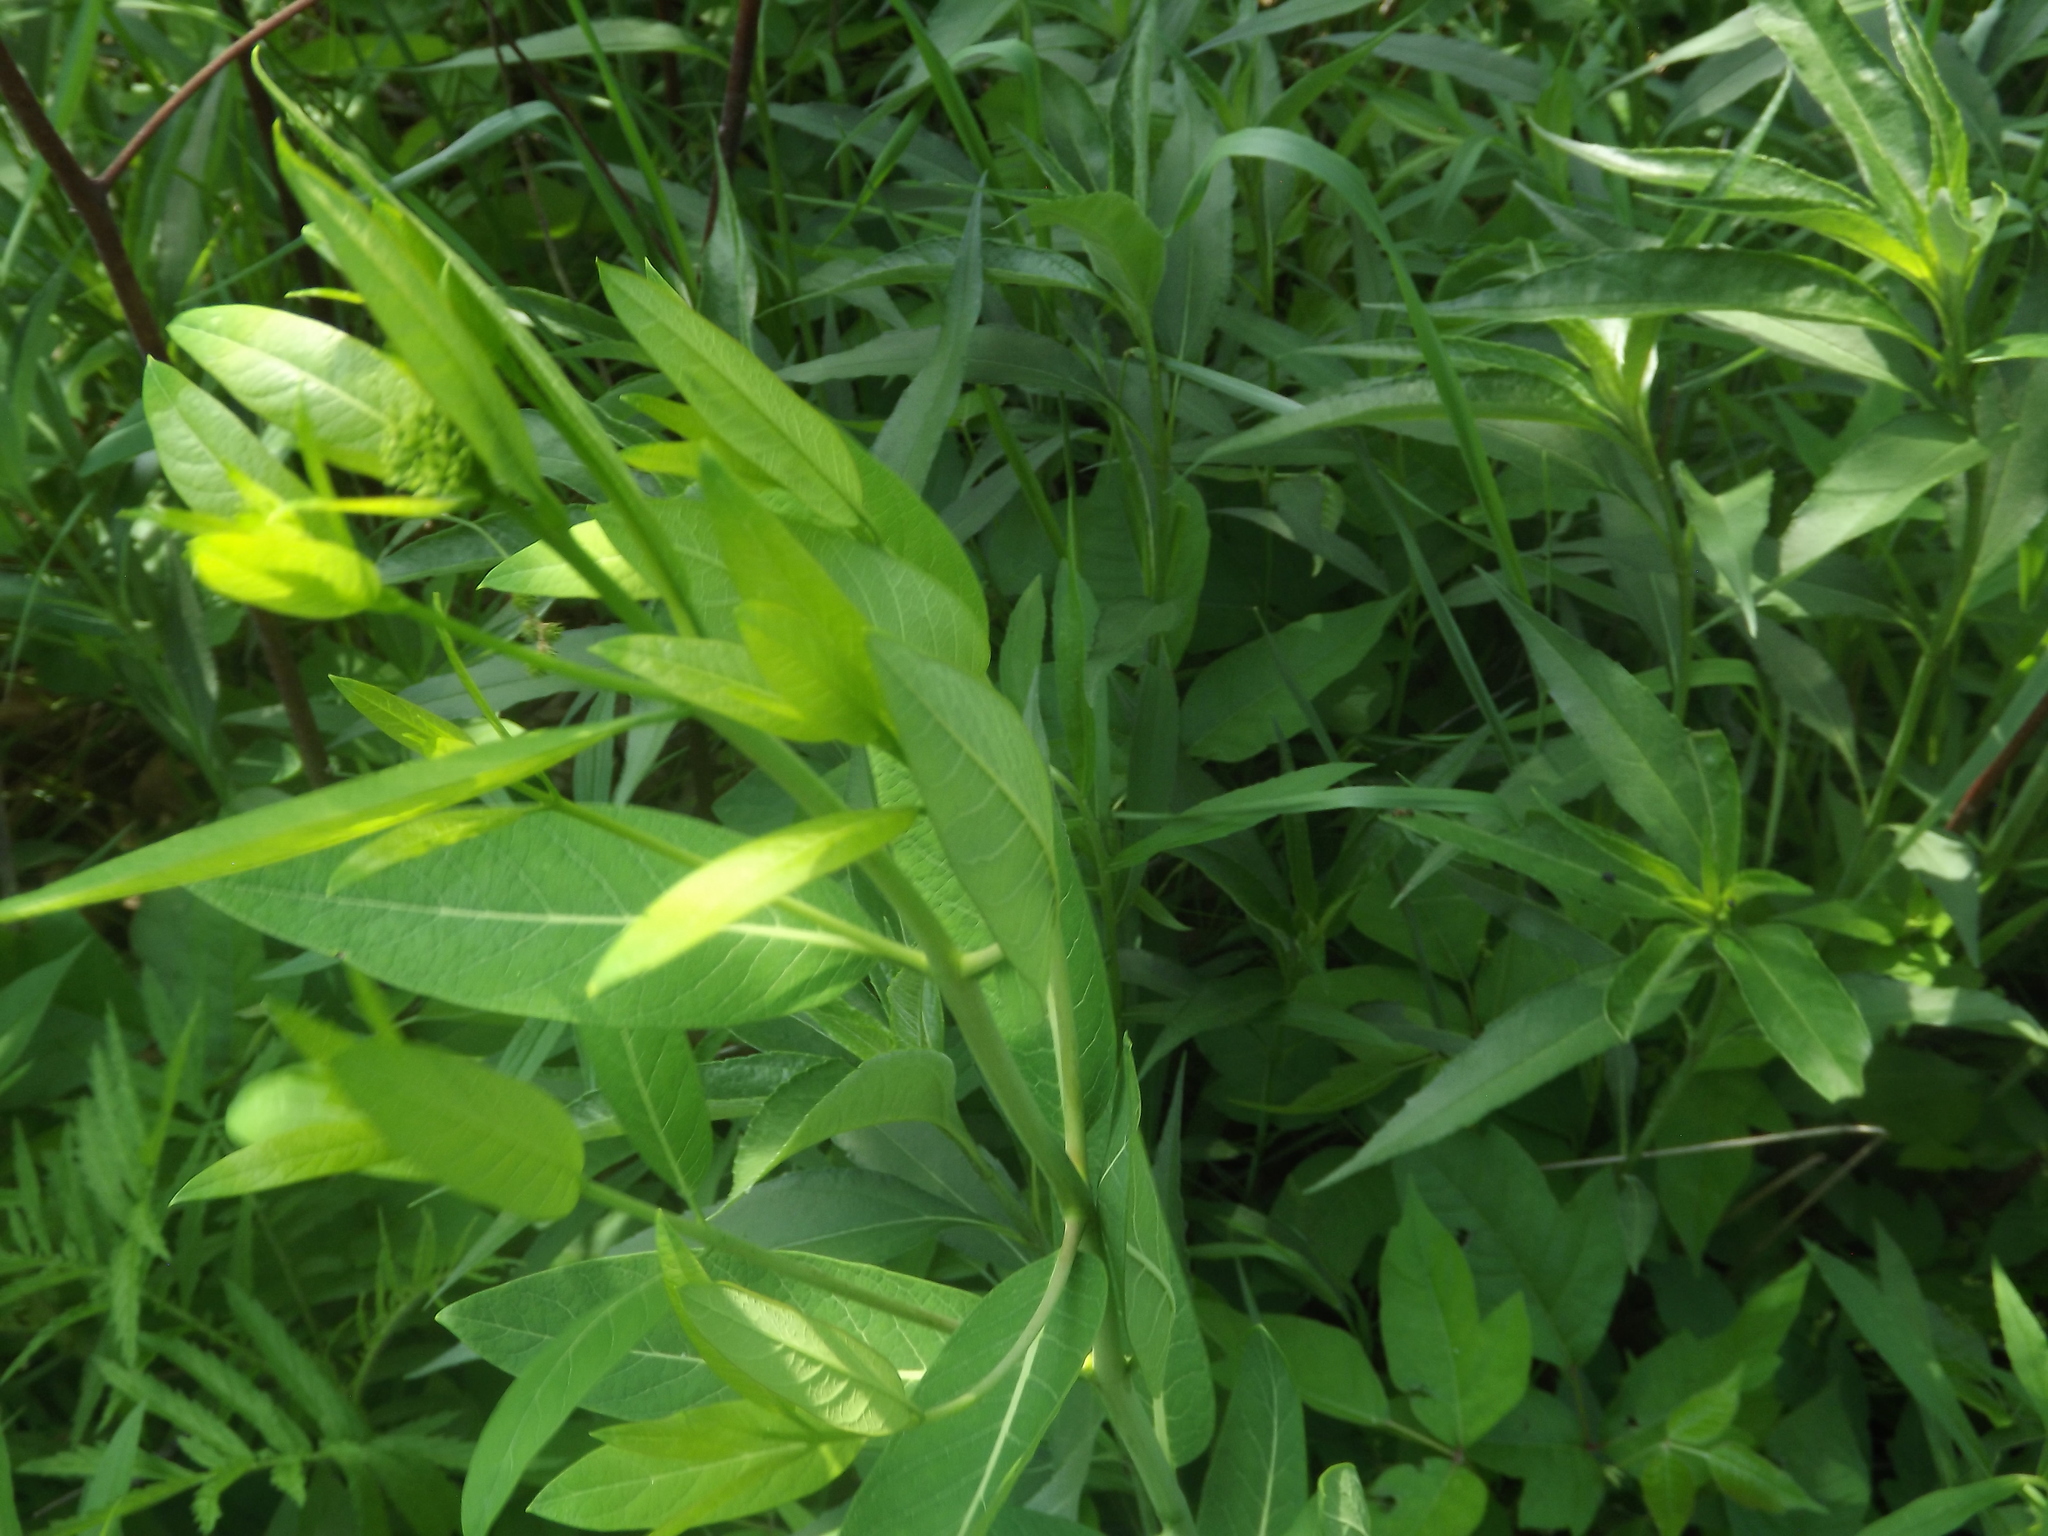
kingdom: Plantae
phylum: Tracheophyta
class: Magnoliopsida
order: Gentianales
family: Apocynaceae
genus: Apocynum
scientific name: Apocynum cannabinum
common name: Hemp dogbane
